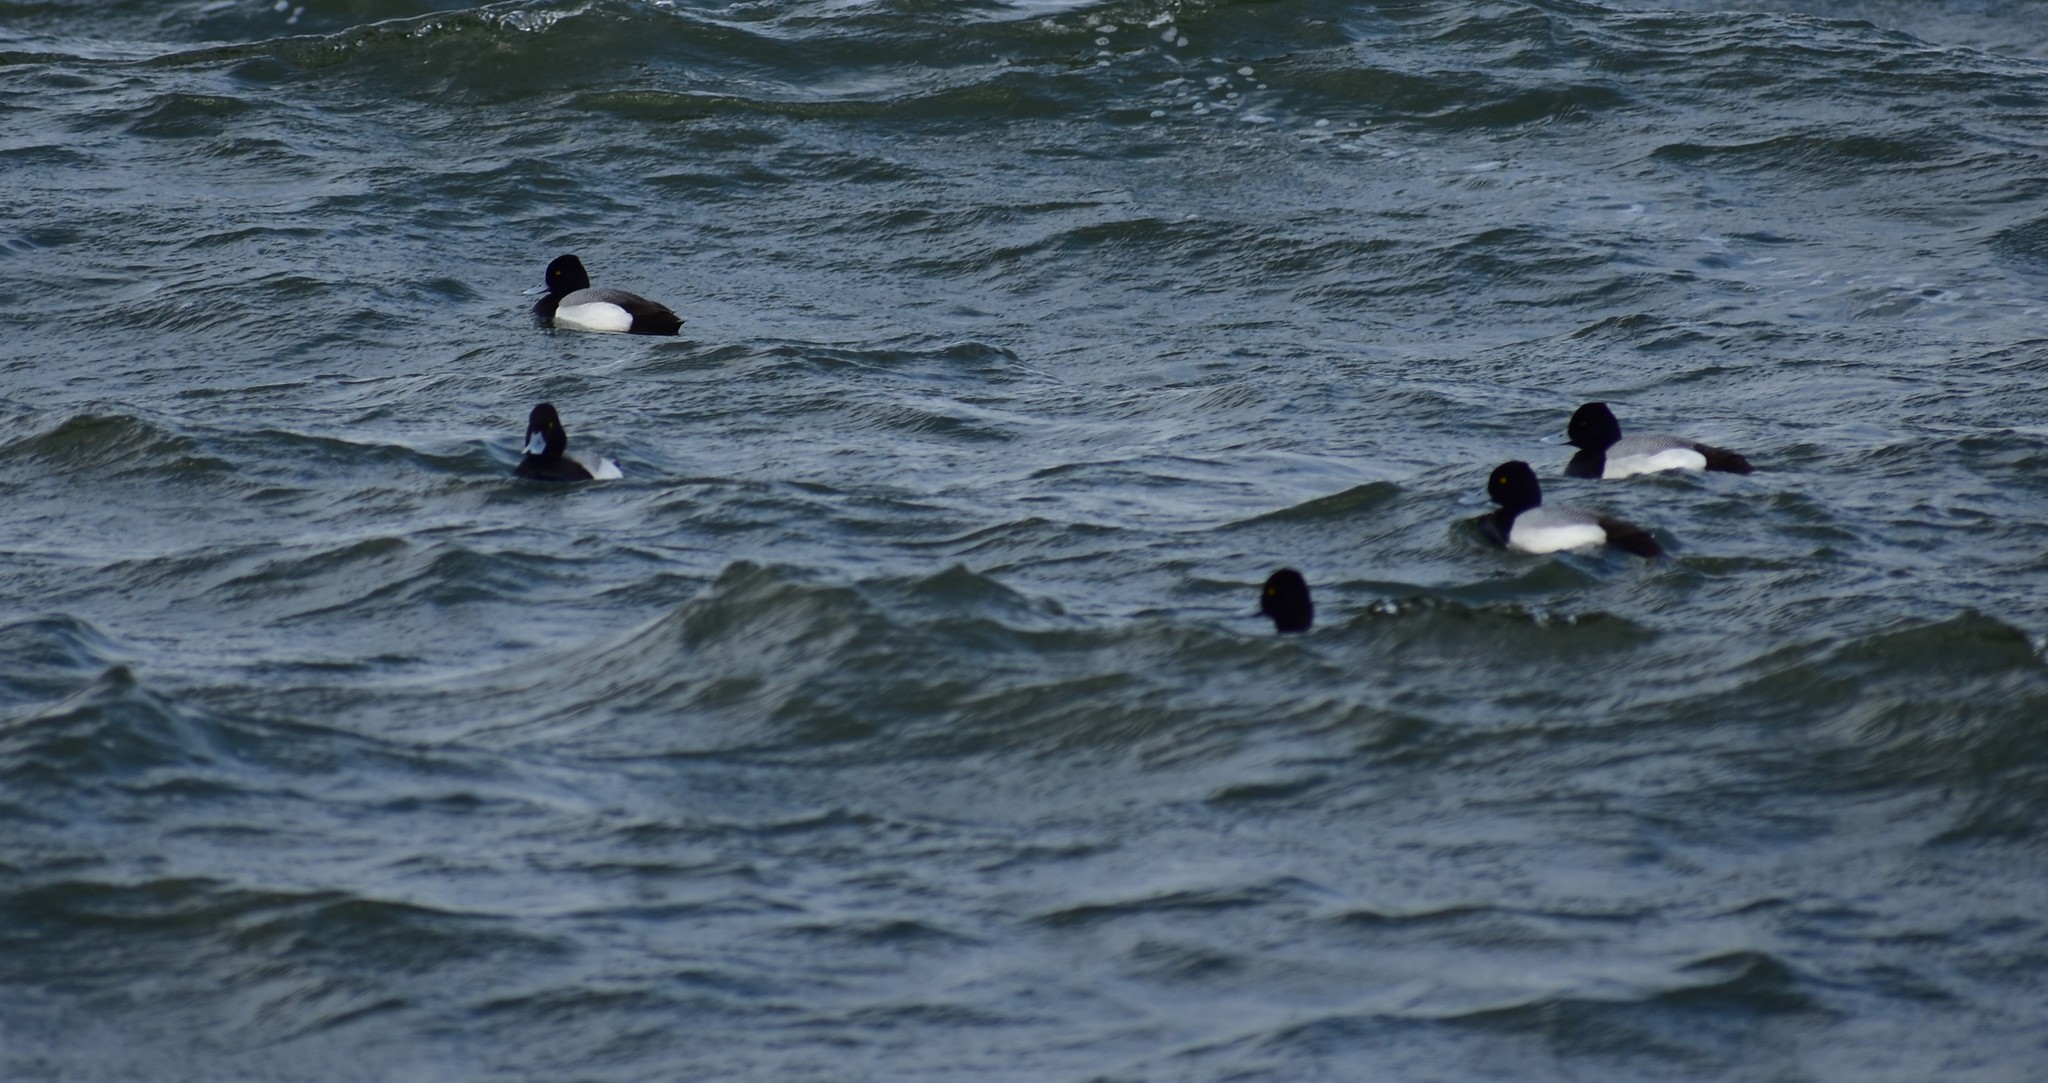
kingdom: Animalia
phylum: Chordata
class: Aves
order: Anseriformes
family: Anatidae
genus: Aythya
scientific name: Aythya affinis
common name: Lesser scaup
